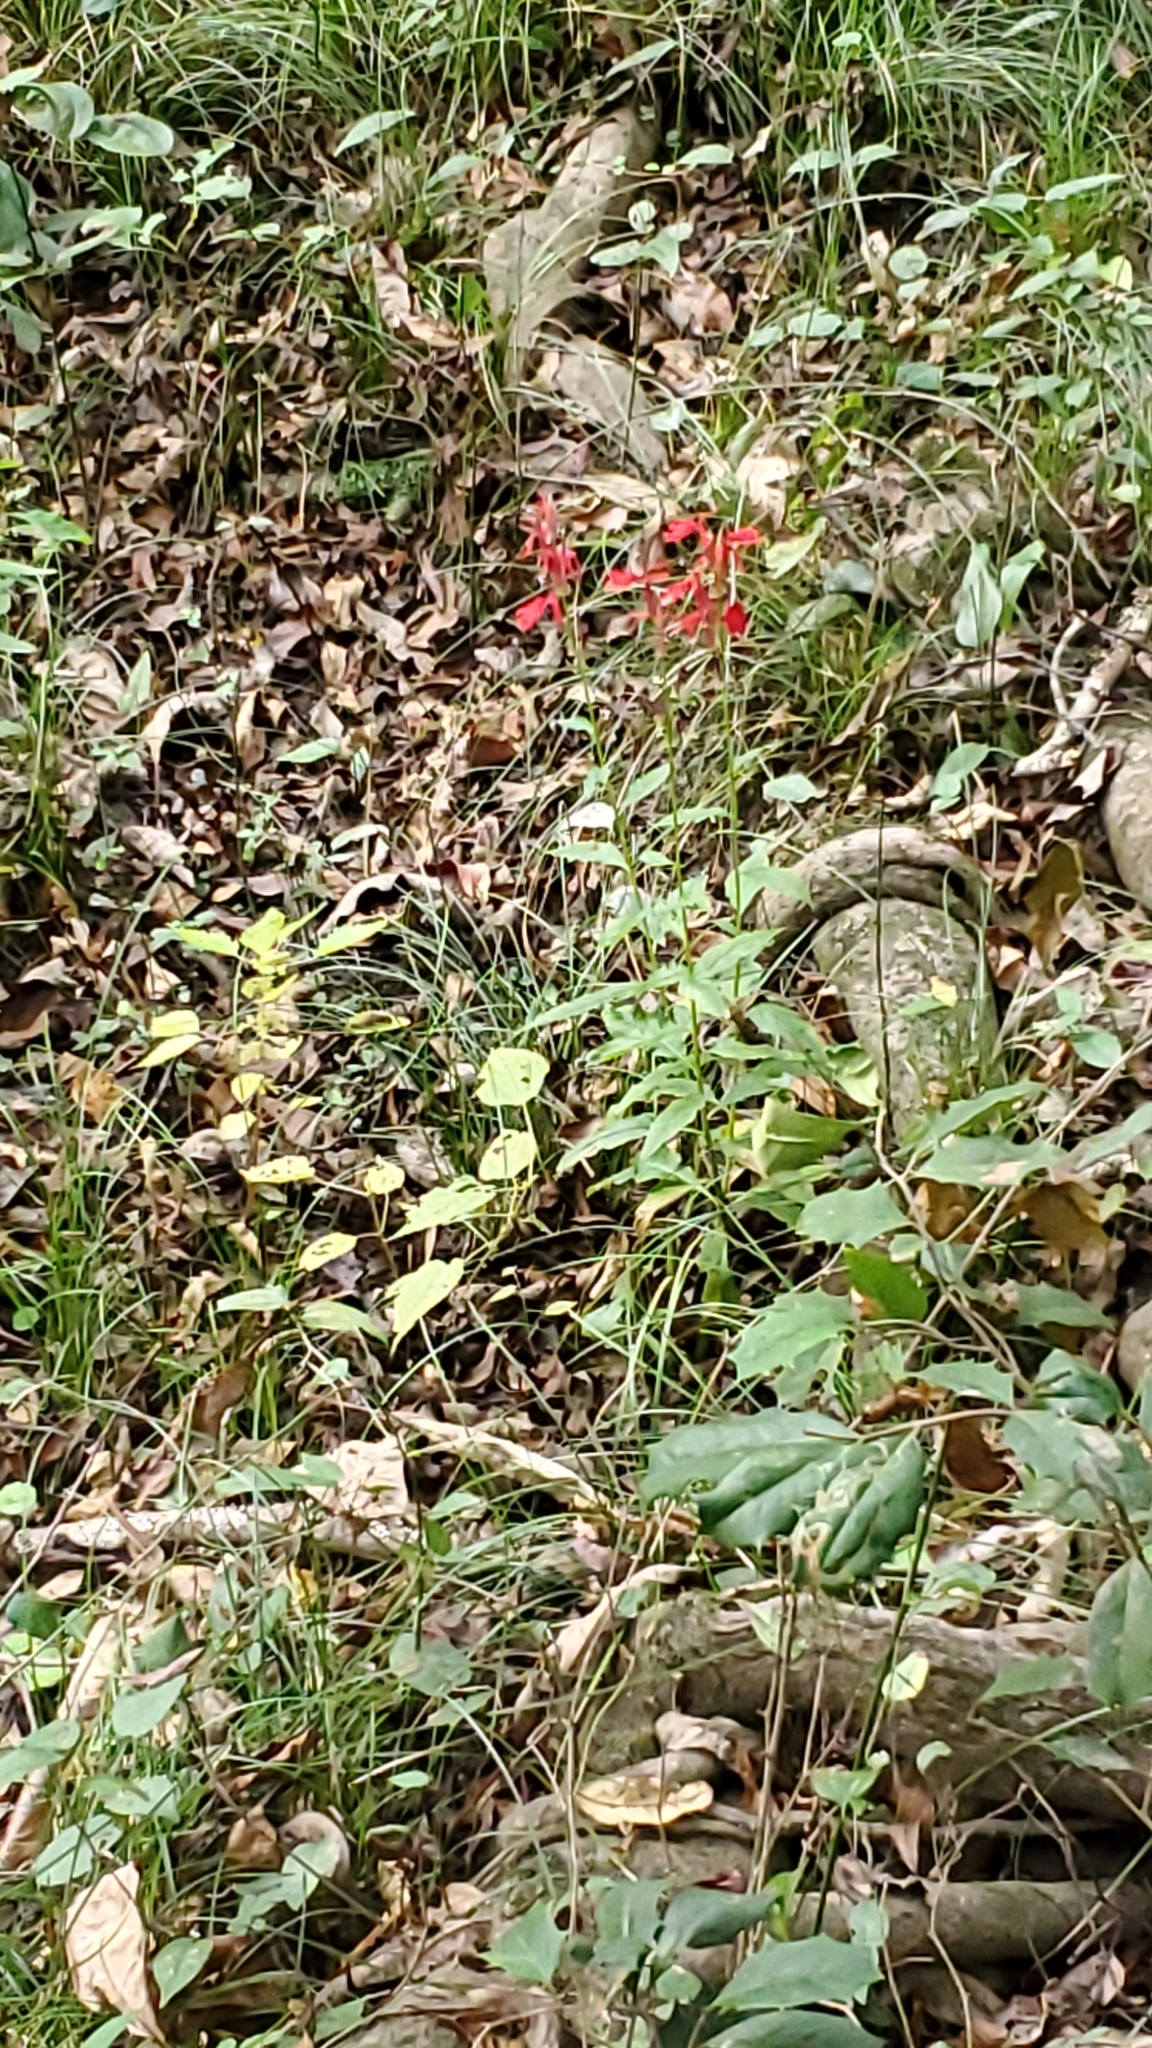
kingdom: Plantae
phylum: Tracheophyta
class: Magnoliopsida
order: Asterales
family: Campanulaceae
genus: Lobelia
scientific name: Lobelia cardinalis
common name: Cardinal flower
